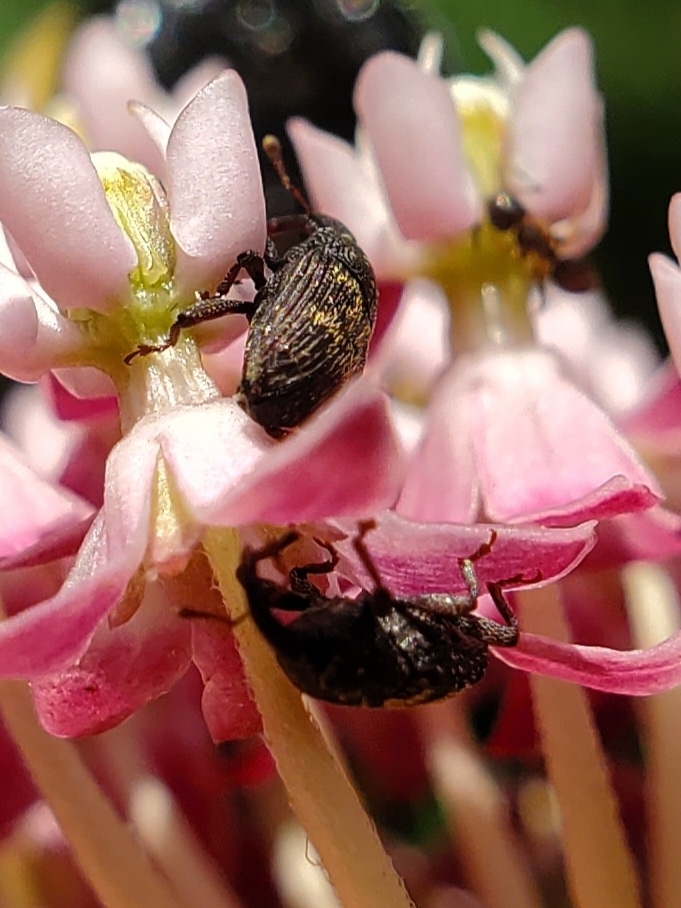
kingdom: Animalia
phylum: Arthropoda
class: Insecta
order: Coleoptera
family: Curculionidae
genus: Glyptobaris
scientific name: Glyptobaris lecontei
